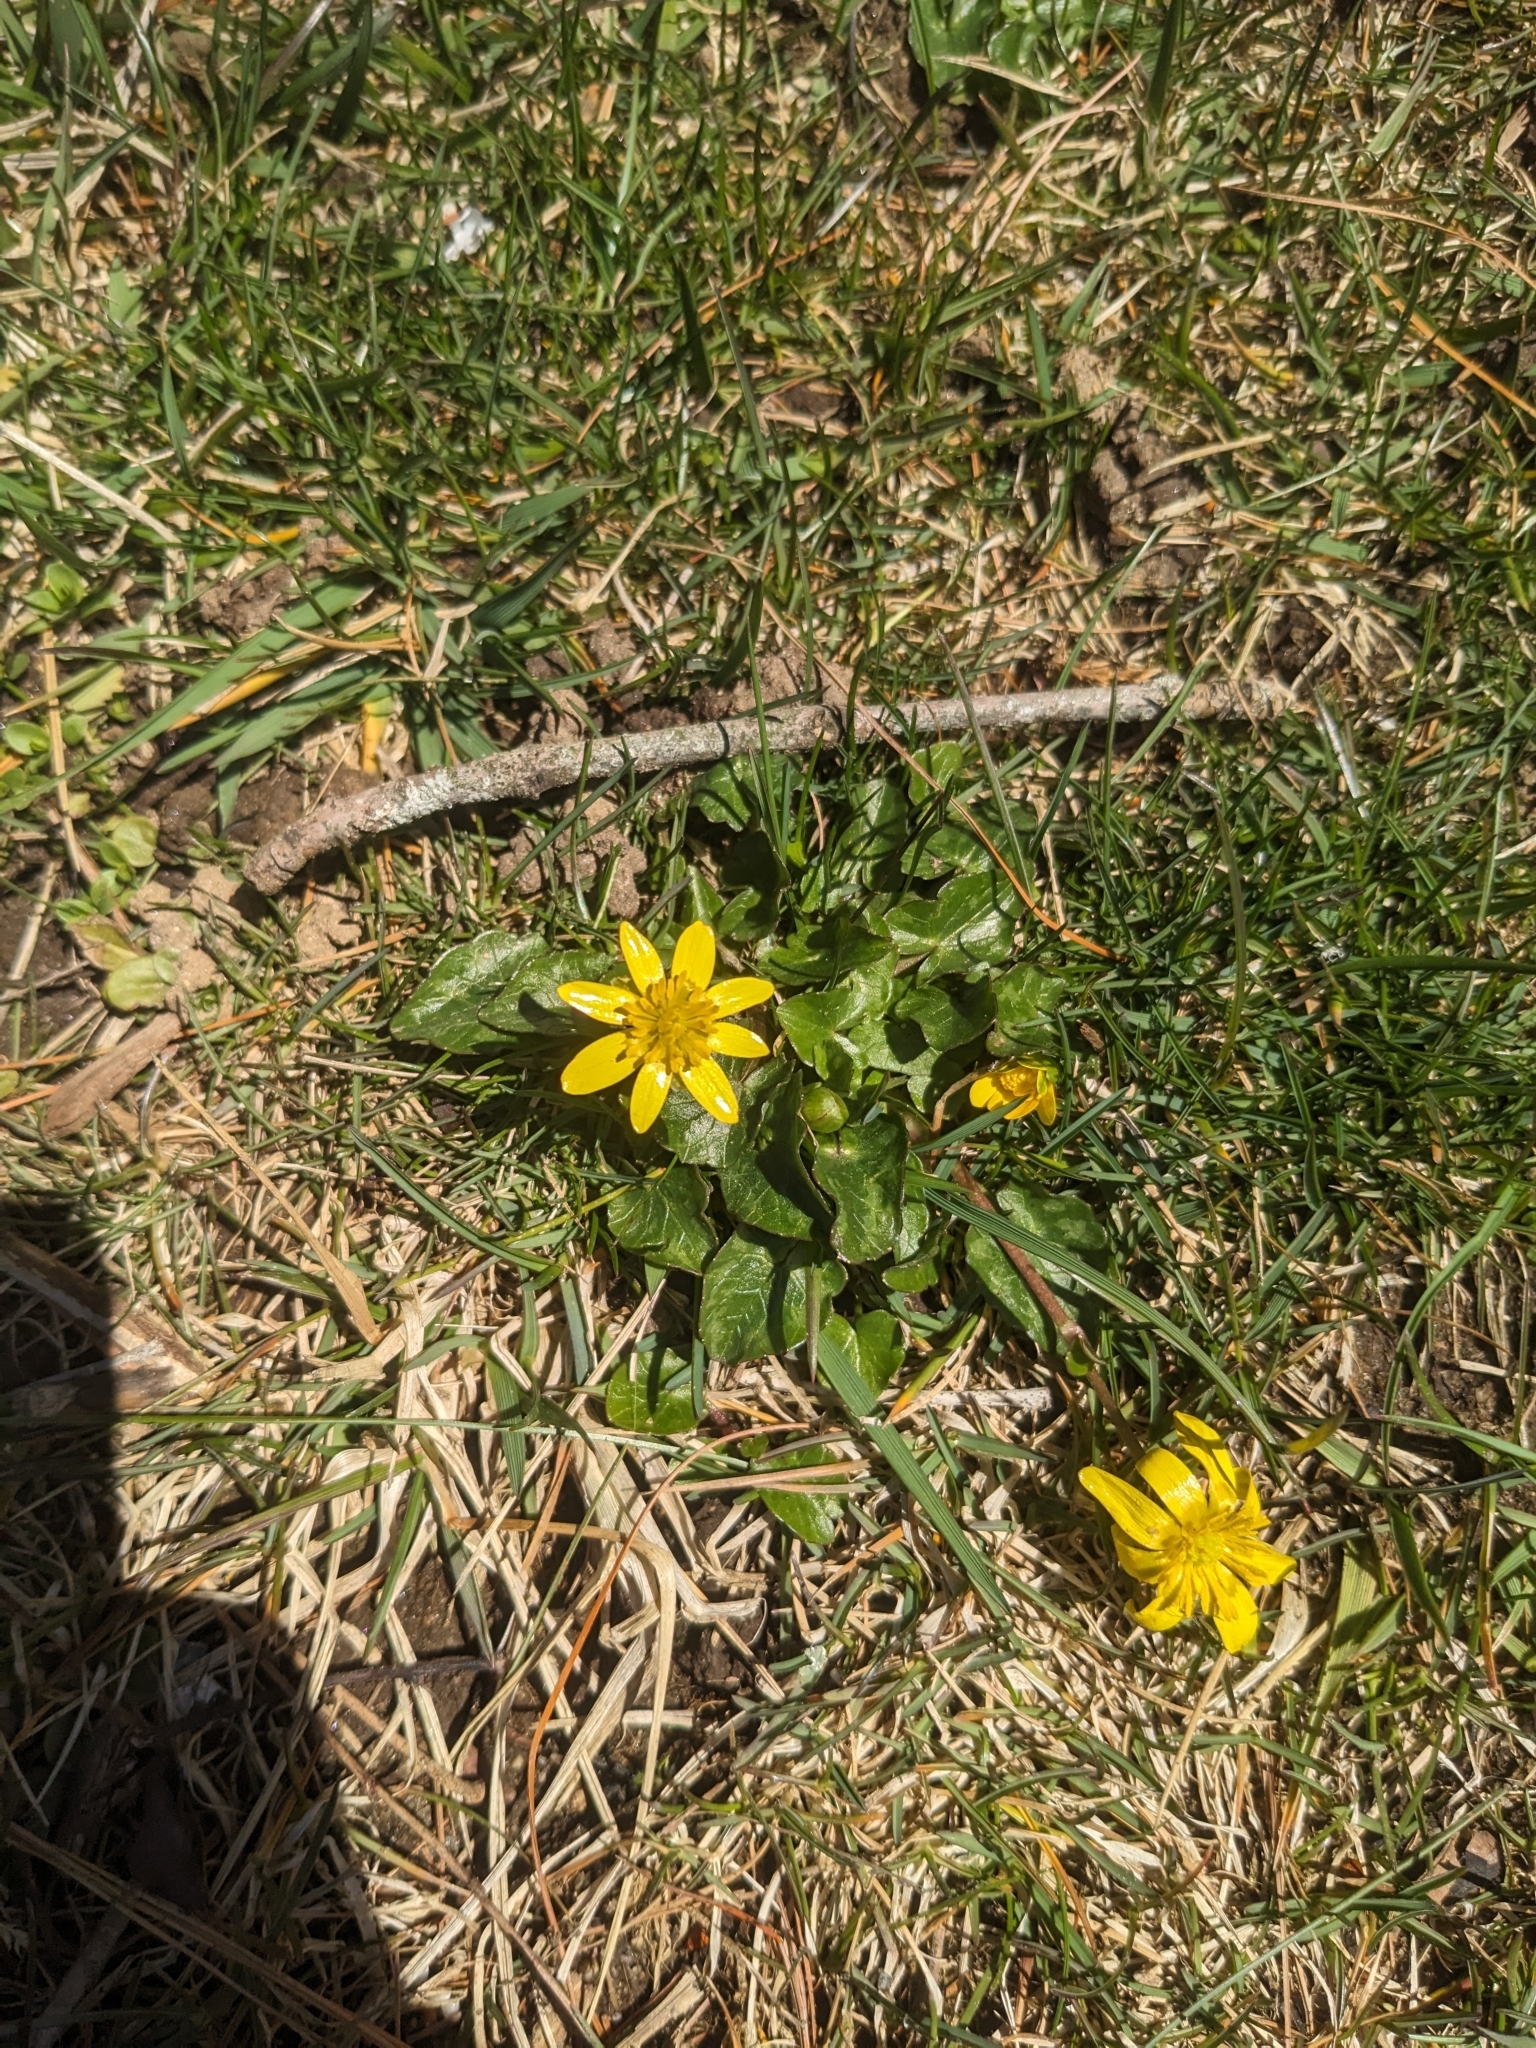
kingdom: Plantae
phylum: Tracheophyta
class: Magnoliopsida
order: Ranunculales
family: Ranunculaceae
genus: Ficaria
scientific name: Ficaria verna
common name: Lesser celandine
